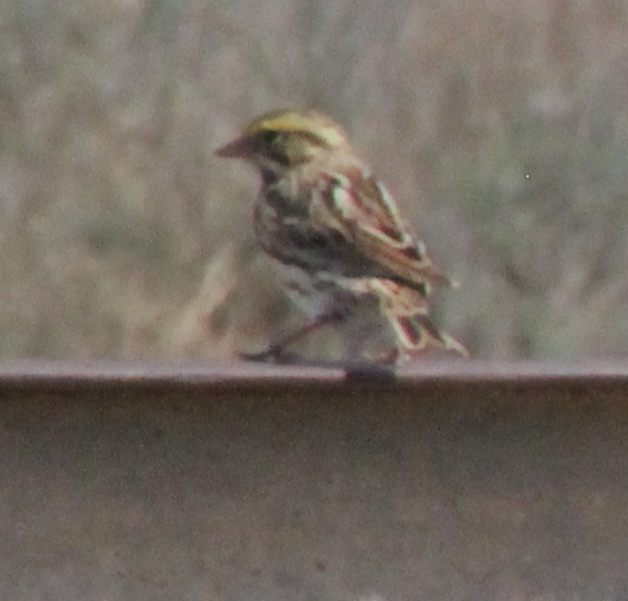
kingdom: Animalia
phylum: Chordata
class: Aves
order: Passeriformes
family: Passerellidae
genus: Passerculus
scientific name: Passerculus sandwichensis
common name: Savannah sparrow
